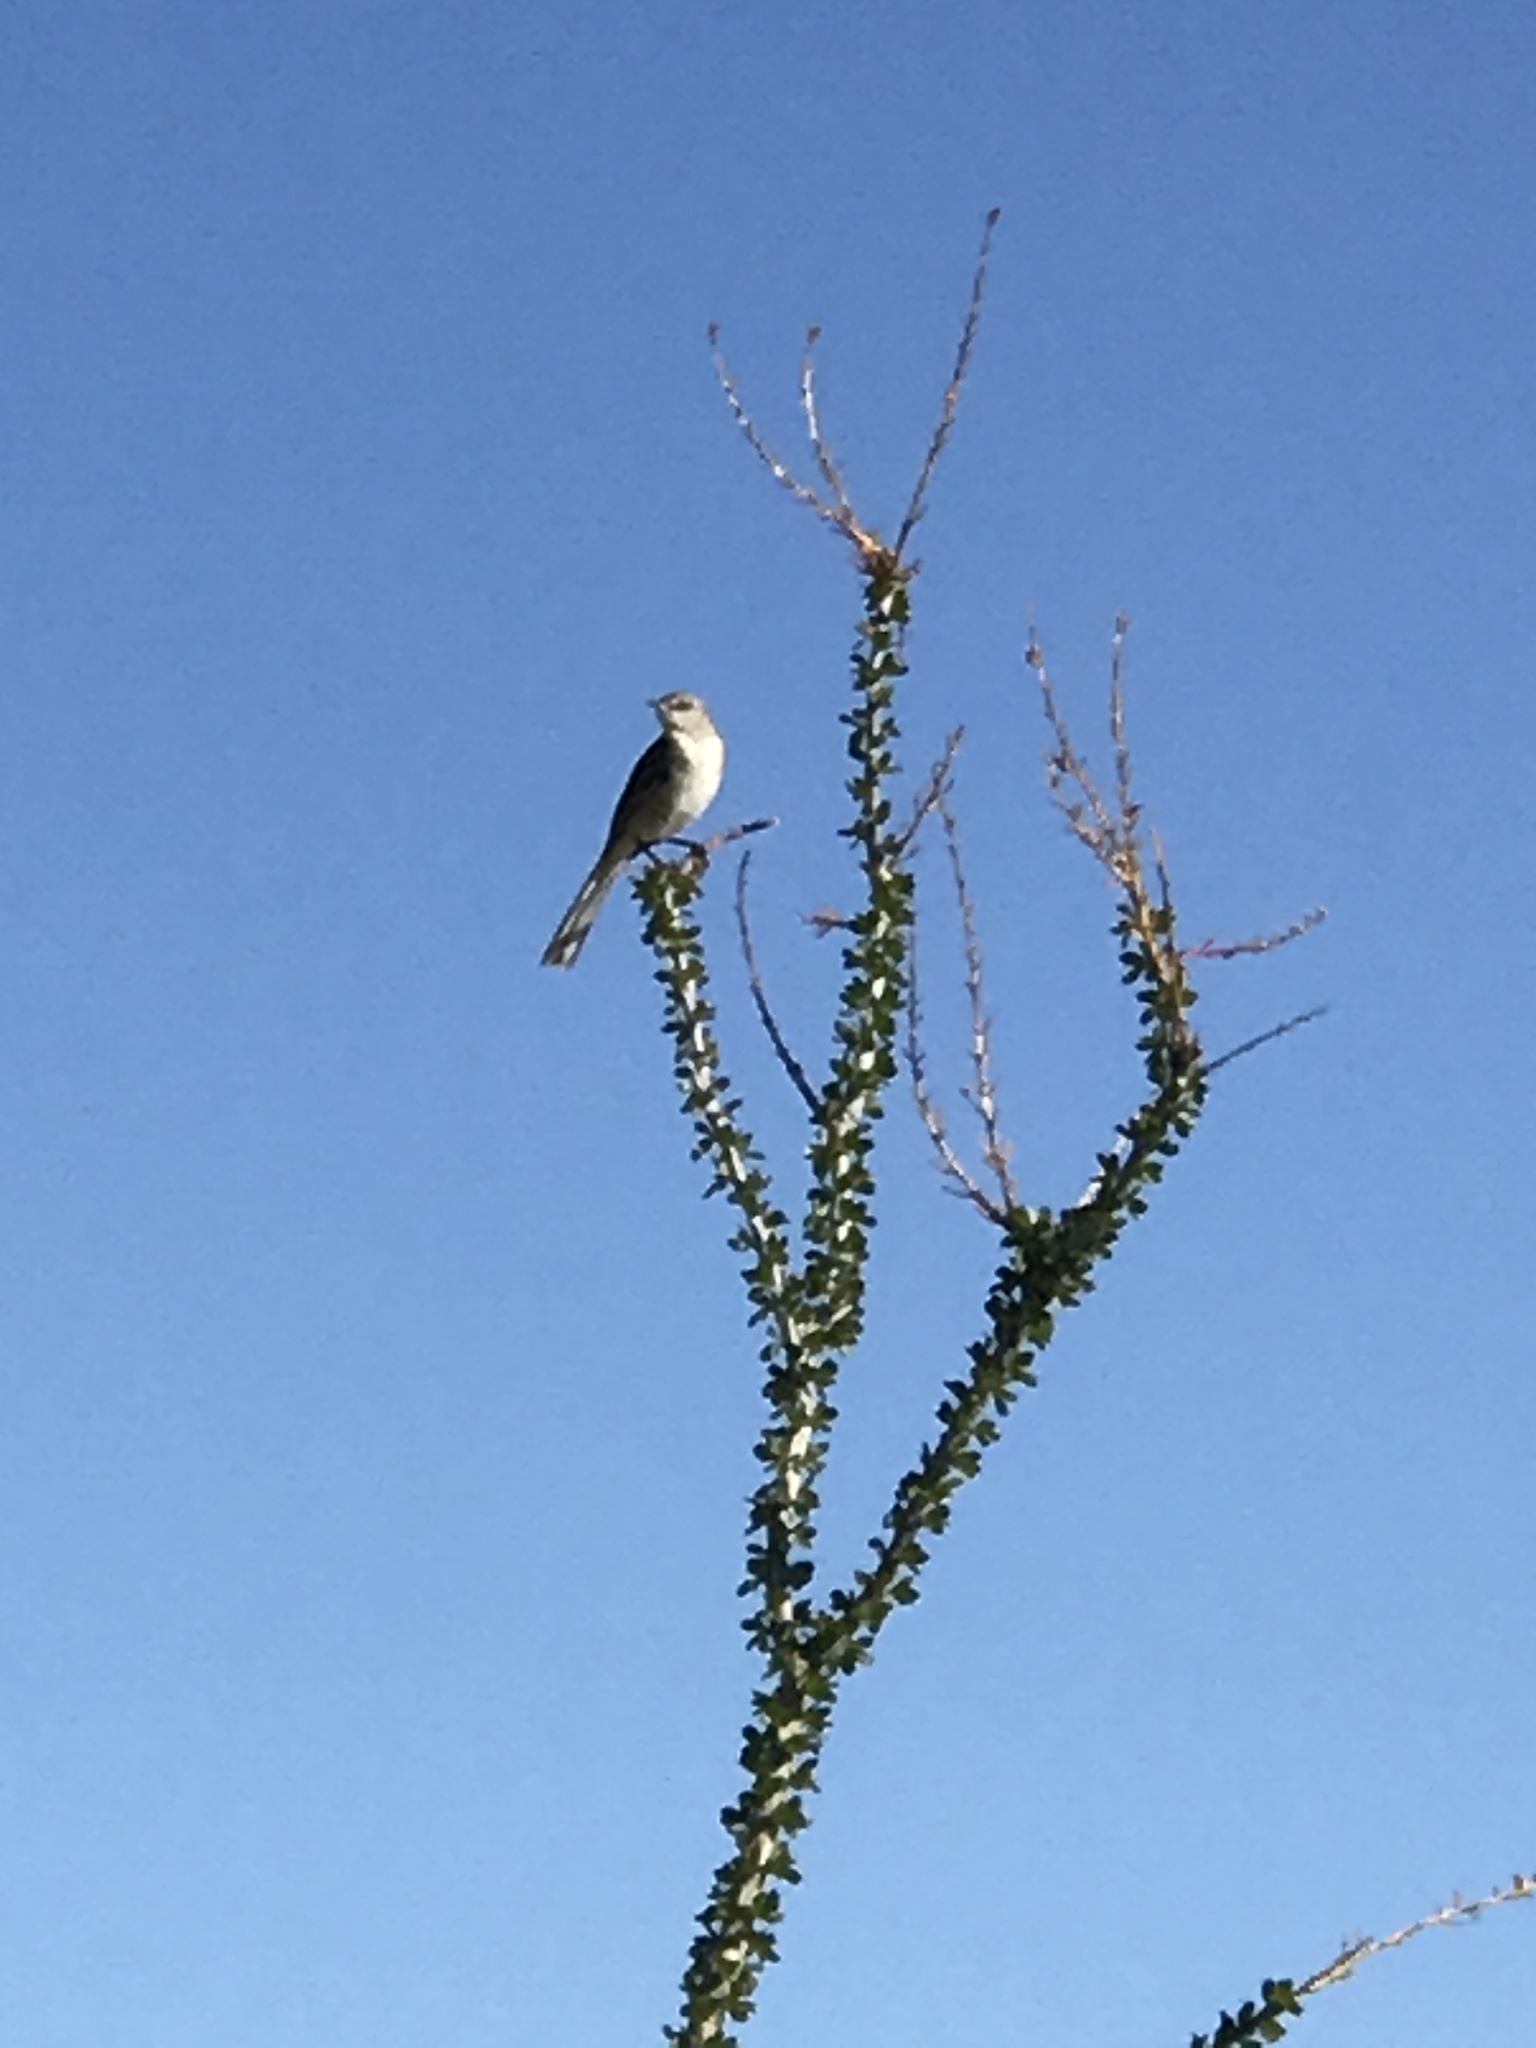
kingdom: Animalia
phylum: Chordata
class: Aves
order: Passeriformes
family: Mimidae
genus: Mimus
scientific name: Mimus polyglottos
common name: Northern mockingbird
